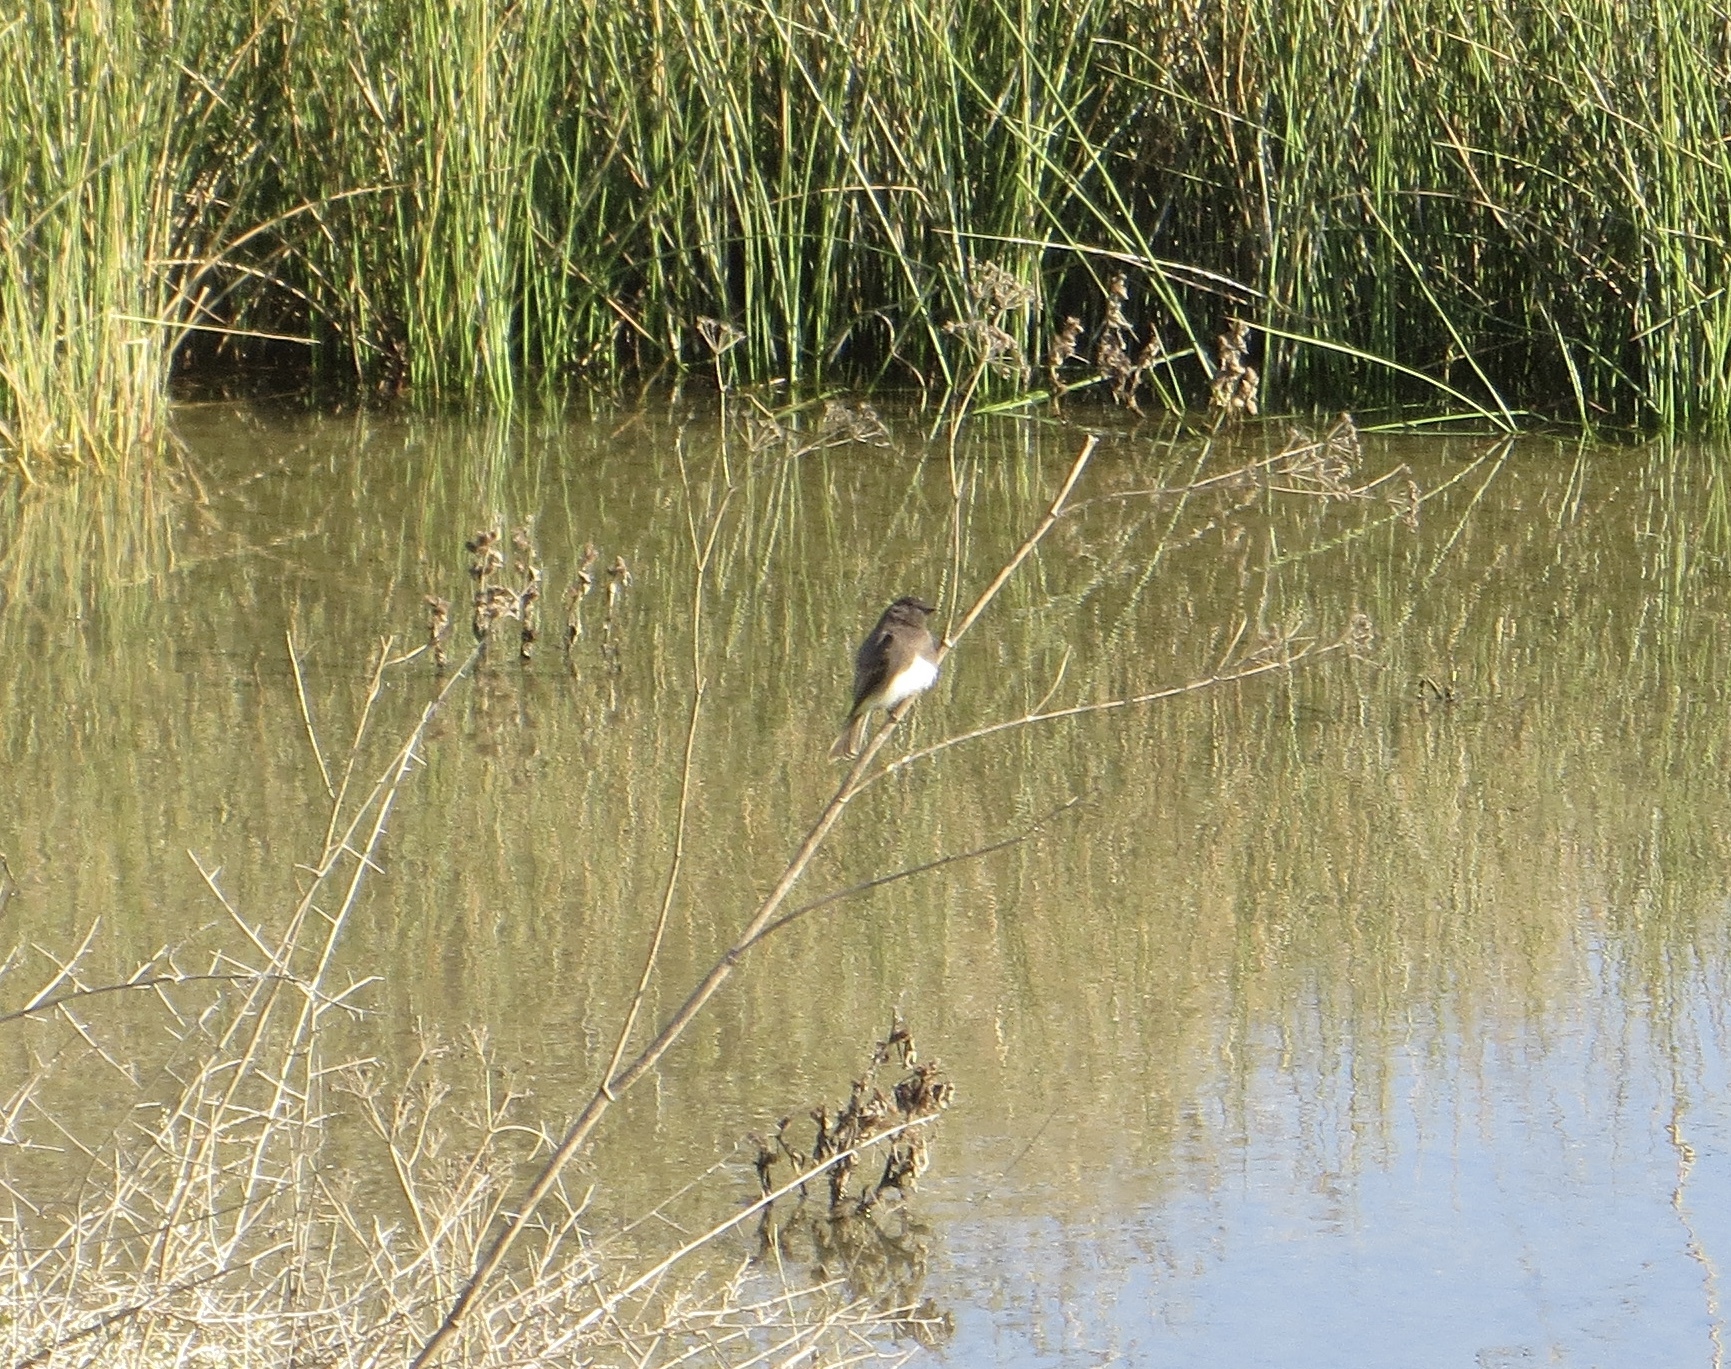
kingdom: Animalia
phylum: Chordata
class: Aves
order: Passeriformes
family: Tyrannidae
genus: Sayornis
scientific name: Sayornis nigricans
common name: Black phoebe
